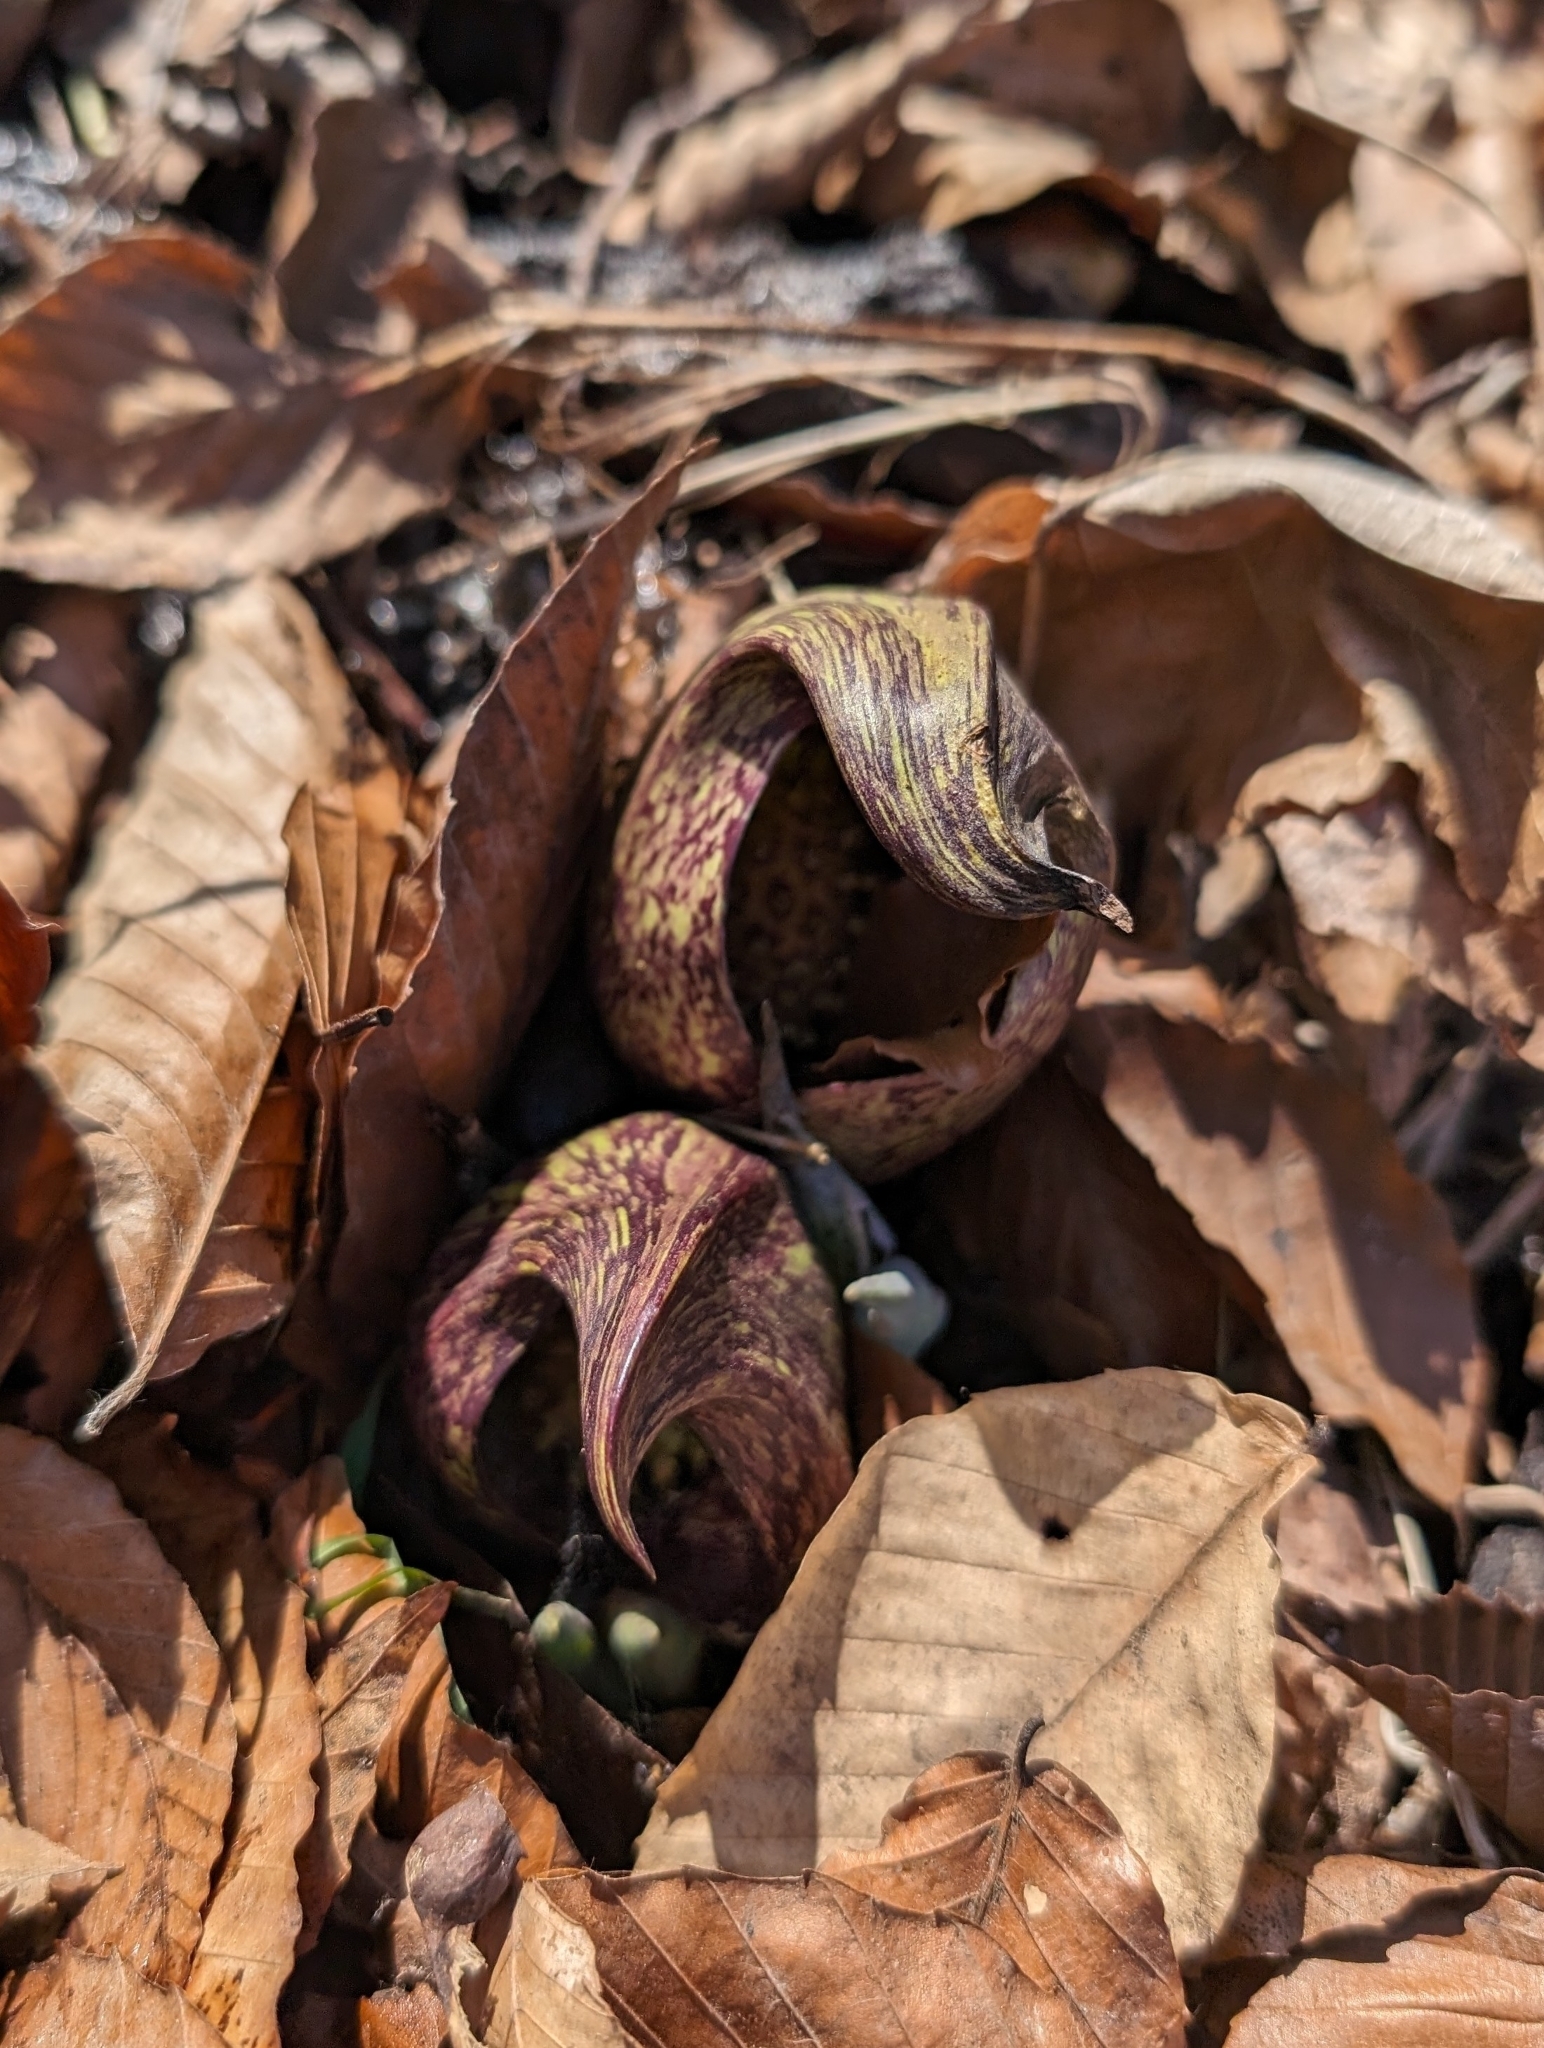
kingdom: Plantae
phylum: Tracheophyta
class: Liliopsida
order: Alismatales
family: Araceae
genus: Symplocarpus
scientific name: Symplocarpus foetidus
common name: Eastern skunk cabbage
